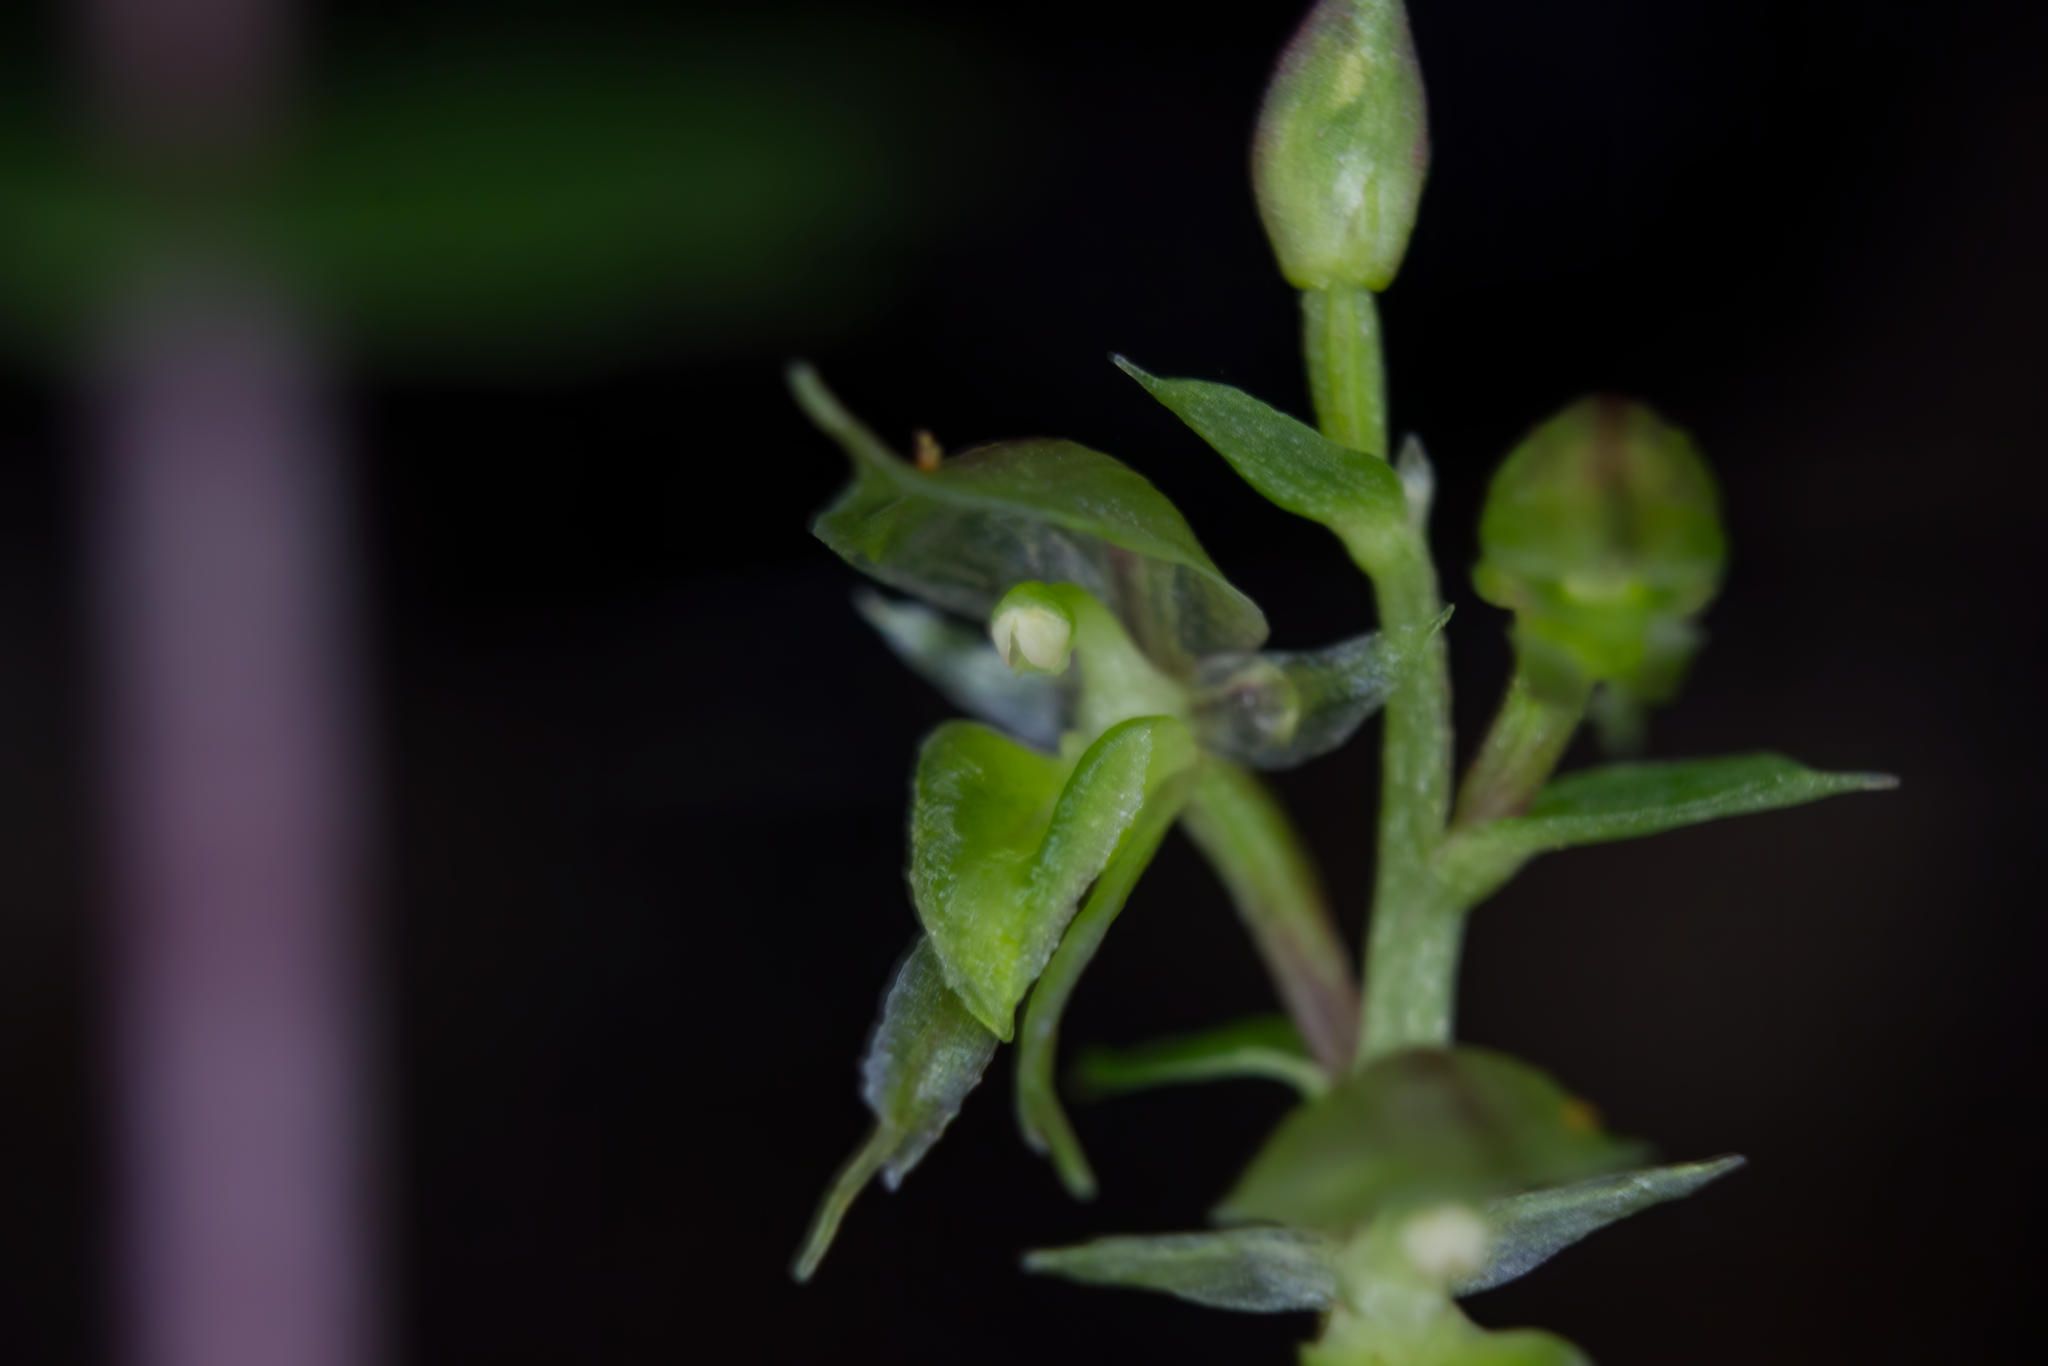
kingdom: Plantae
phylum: Tracheophyta
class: Liliopsida
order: Asparagales
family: Orchidaceae
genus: Acianthus
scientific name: Acianthus sinclairii
